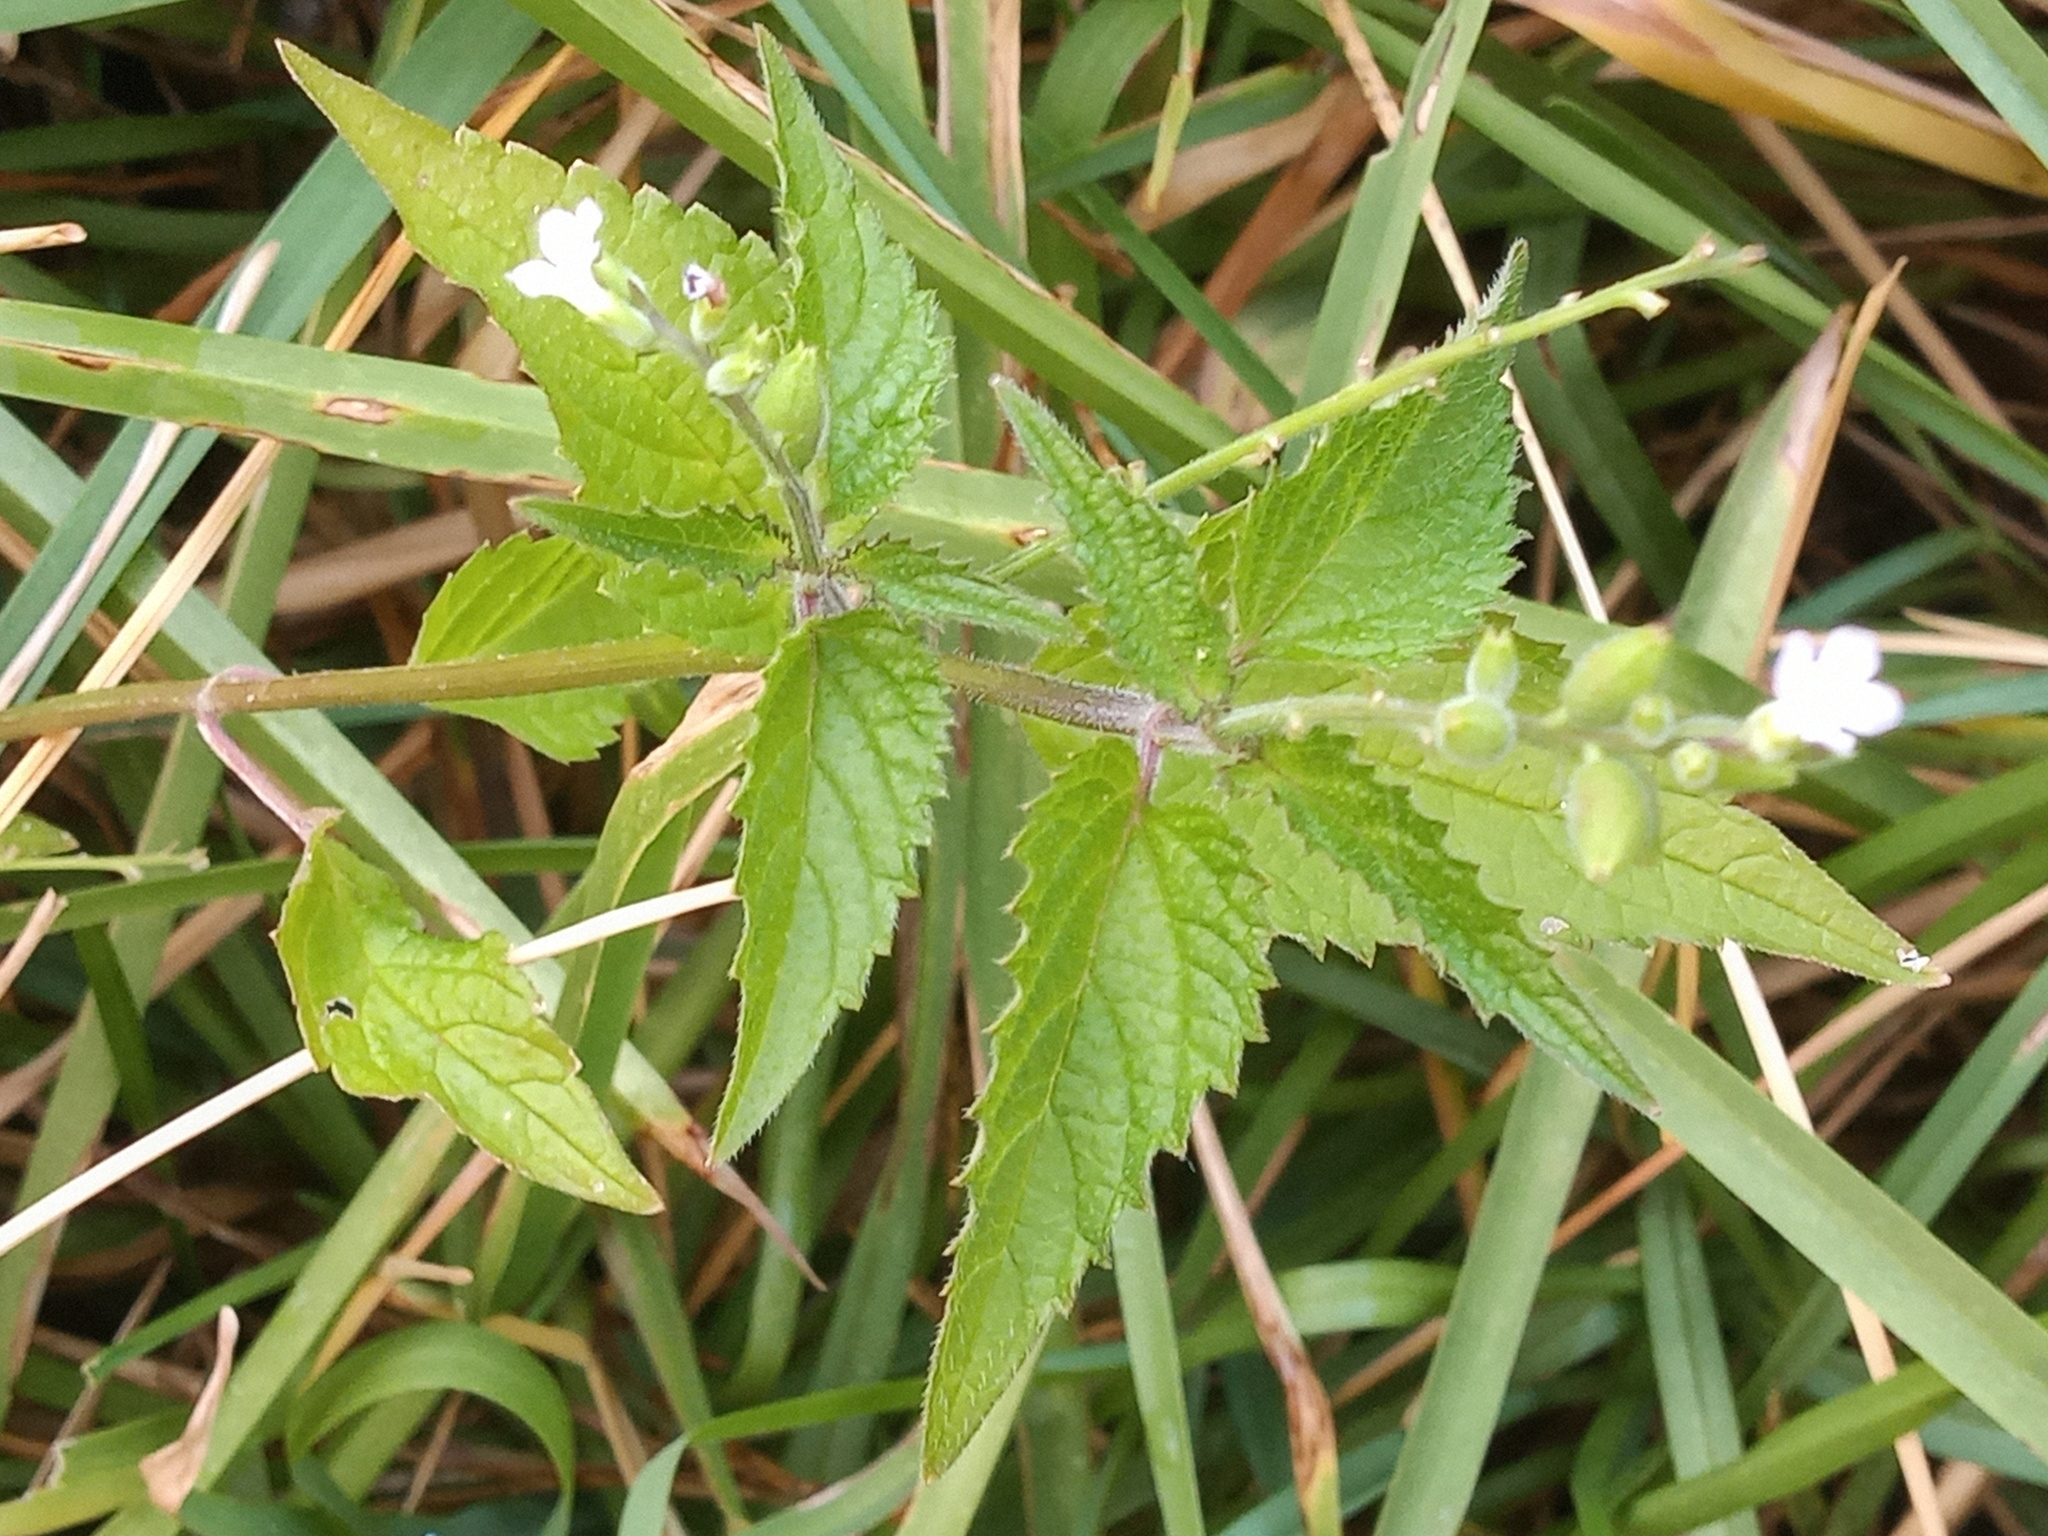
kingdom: Plantae
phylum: Tracheophyta
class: Magnoliopsida
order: Lamiales
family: Verbenaceae
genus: Priva
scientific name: Priva lappulacea
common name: Fasten-'pon-coat
